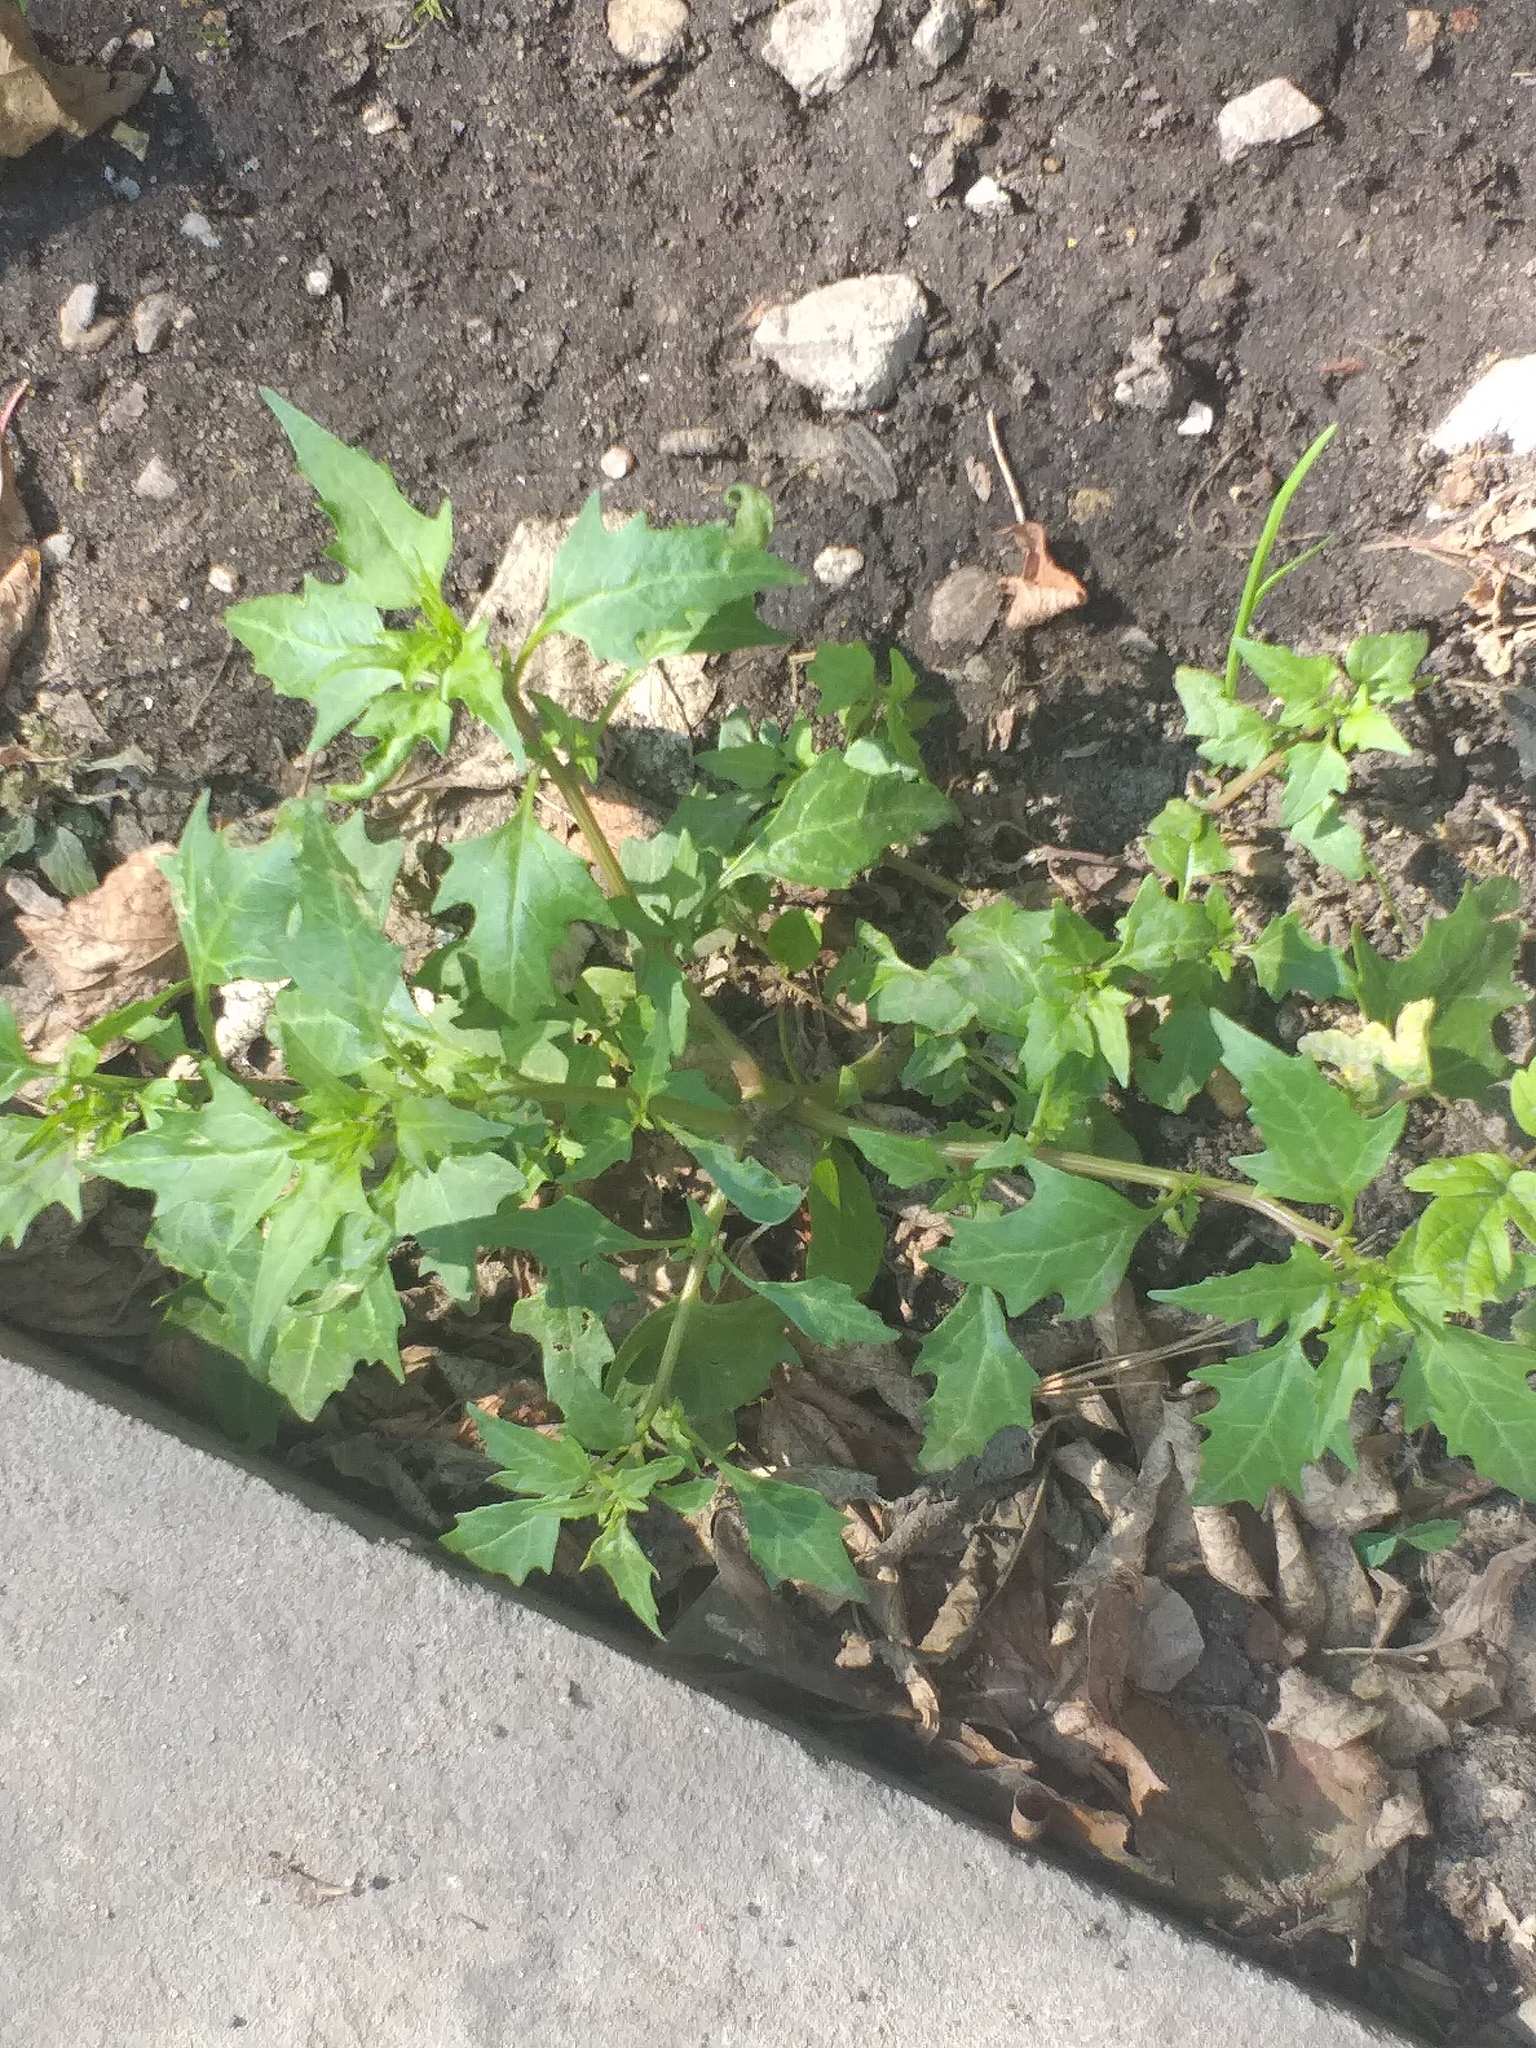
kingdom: Plantae
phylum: Tracheophyta
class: Magnoliopsida
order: Caryophyllales
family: Amaranthaceae
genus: Oxybasis
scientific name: Oxybasis rubra
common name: Red goosefoot
